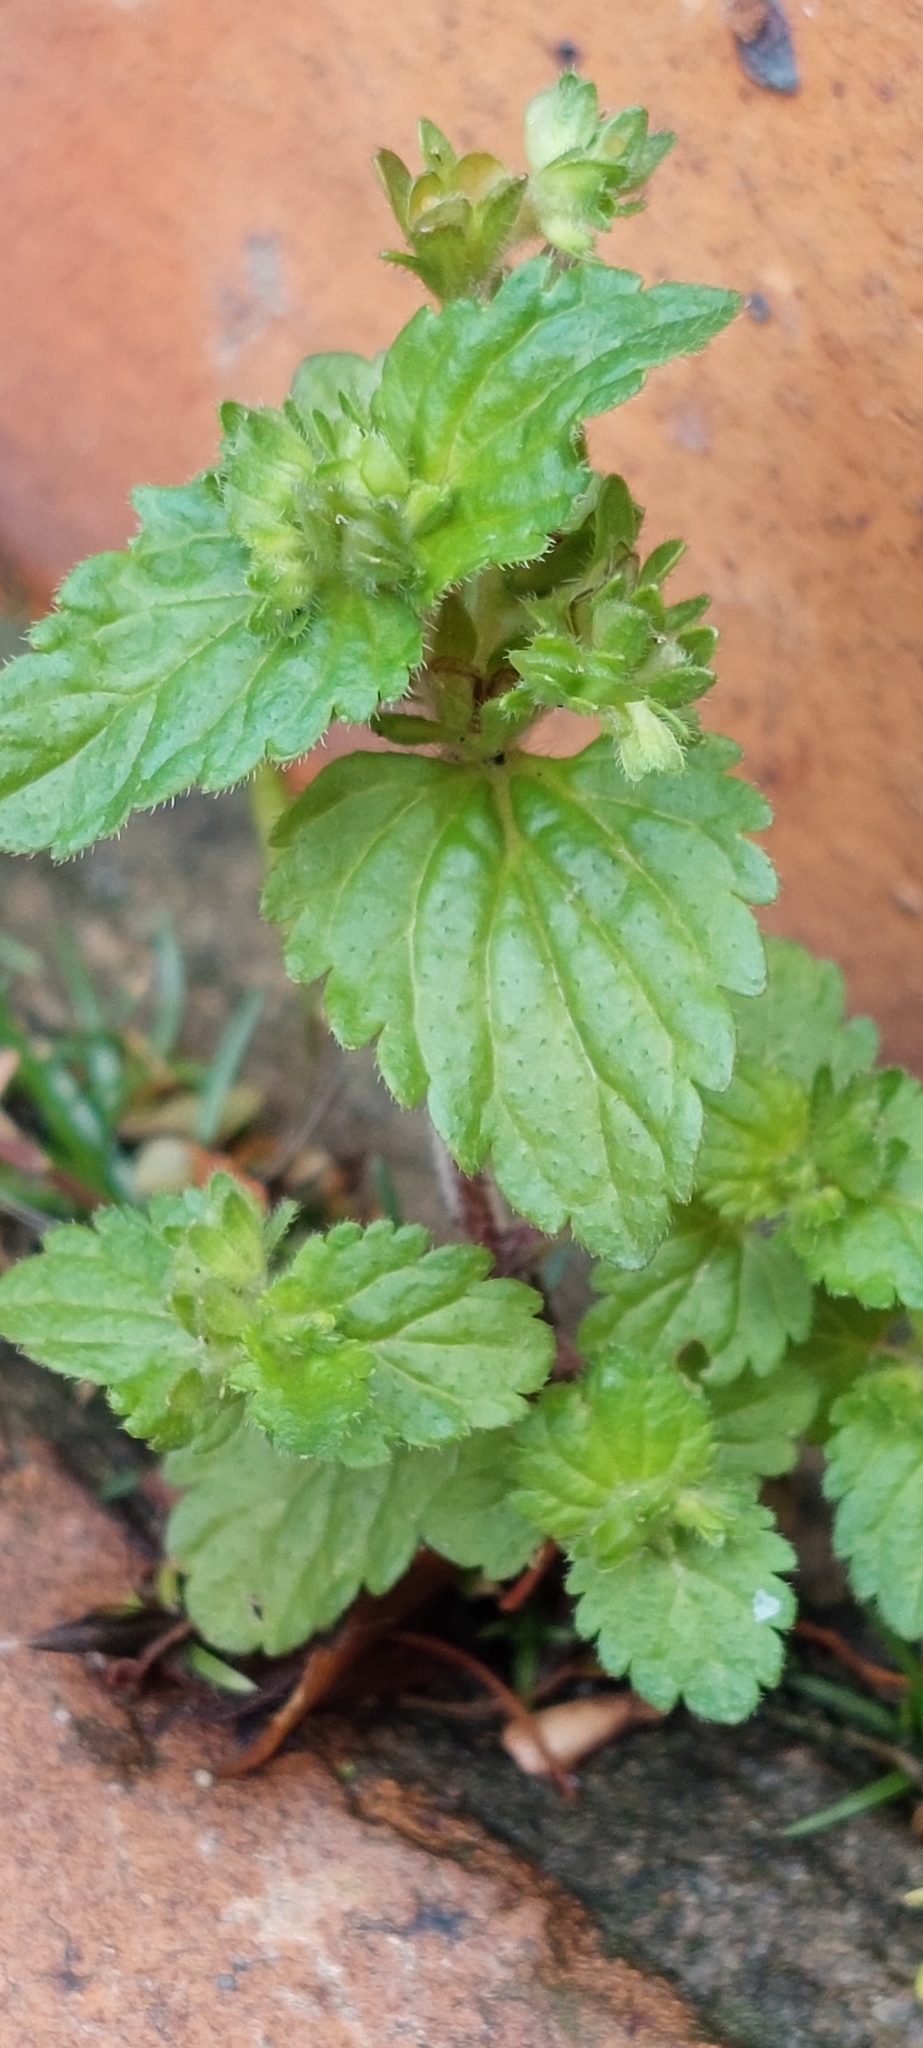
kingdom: Plantae
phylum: Tracheophyta
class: Magnoliopsida
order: Lamiales
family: Plantaginaceae
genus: Veronica
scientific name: Veronica javanica
